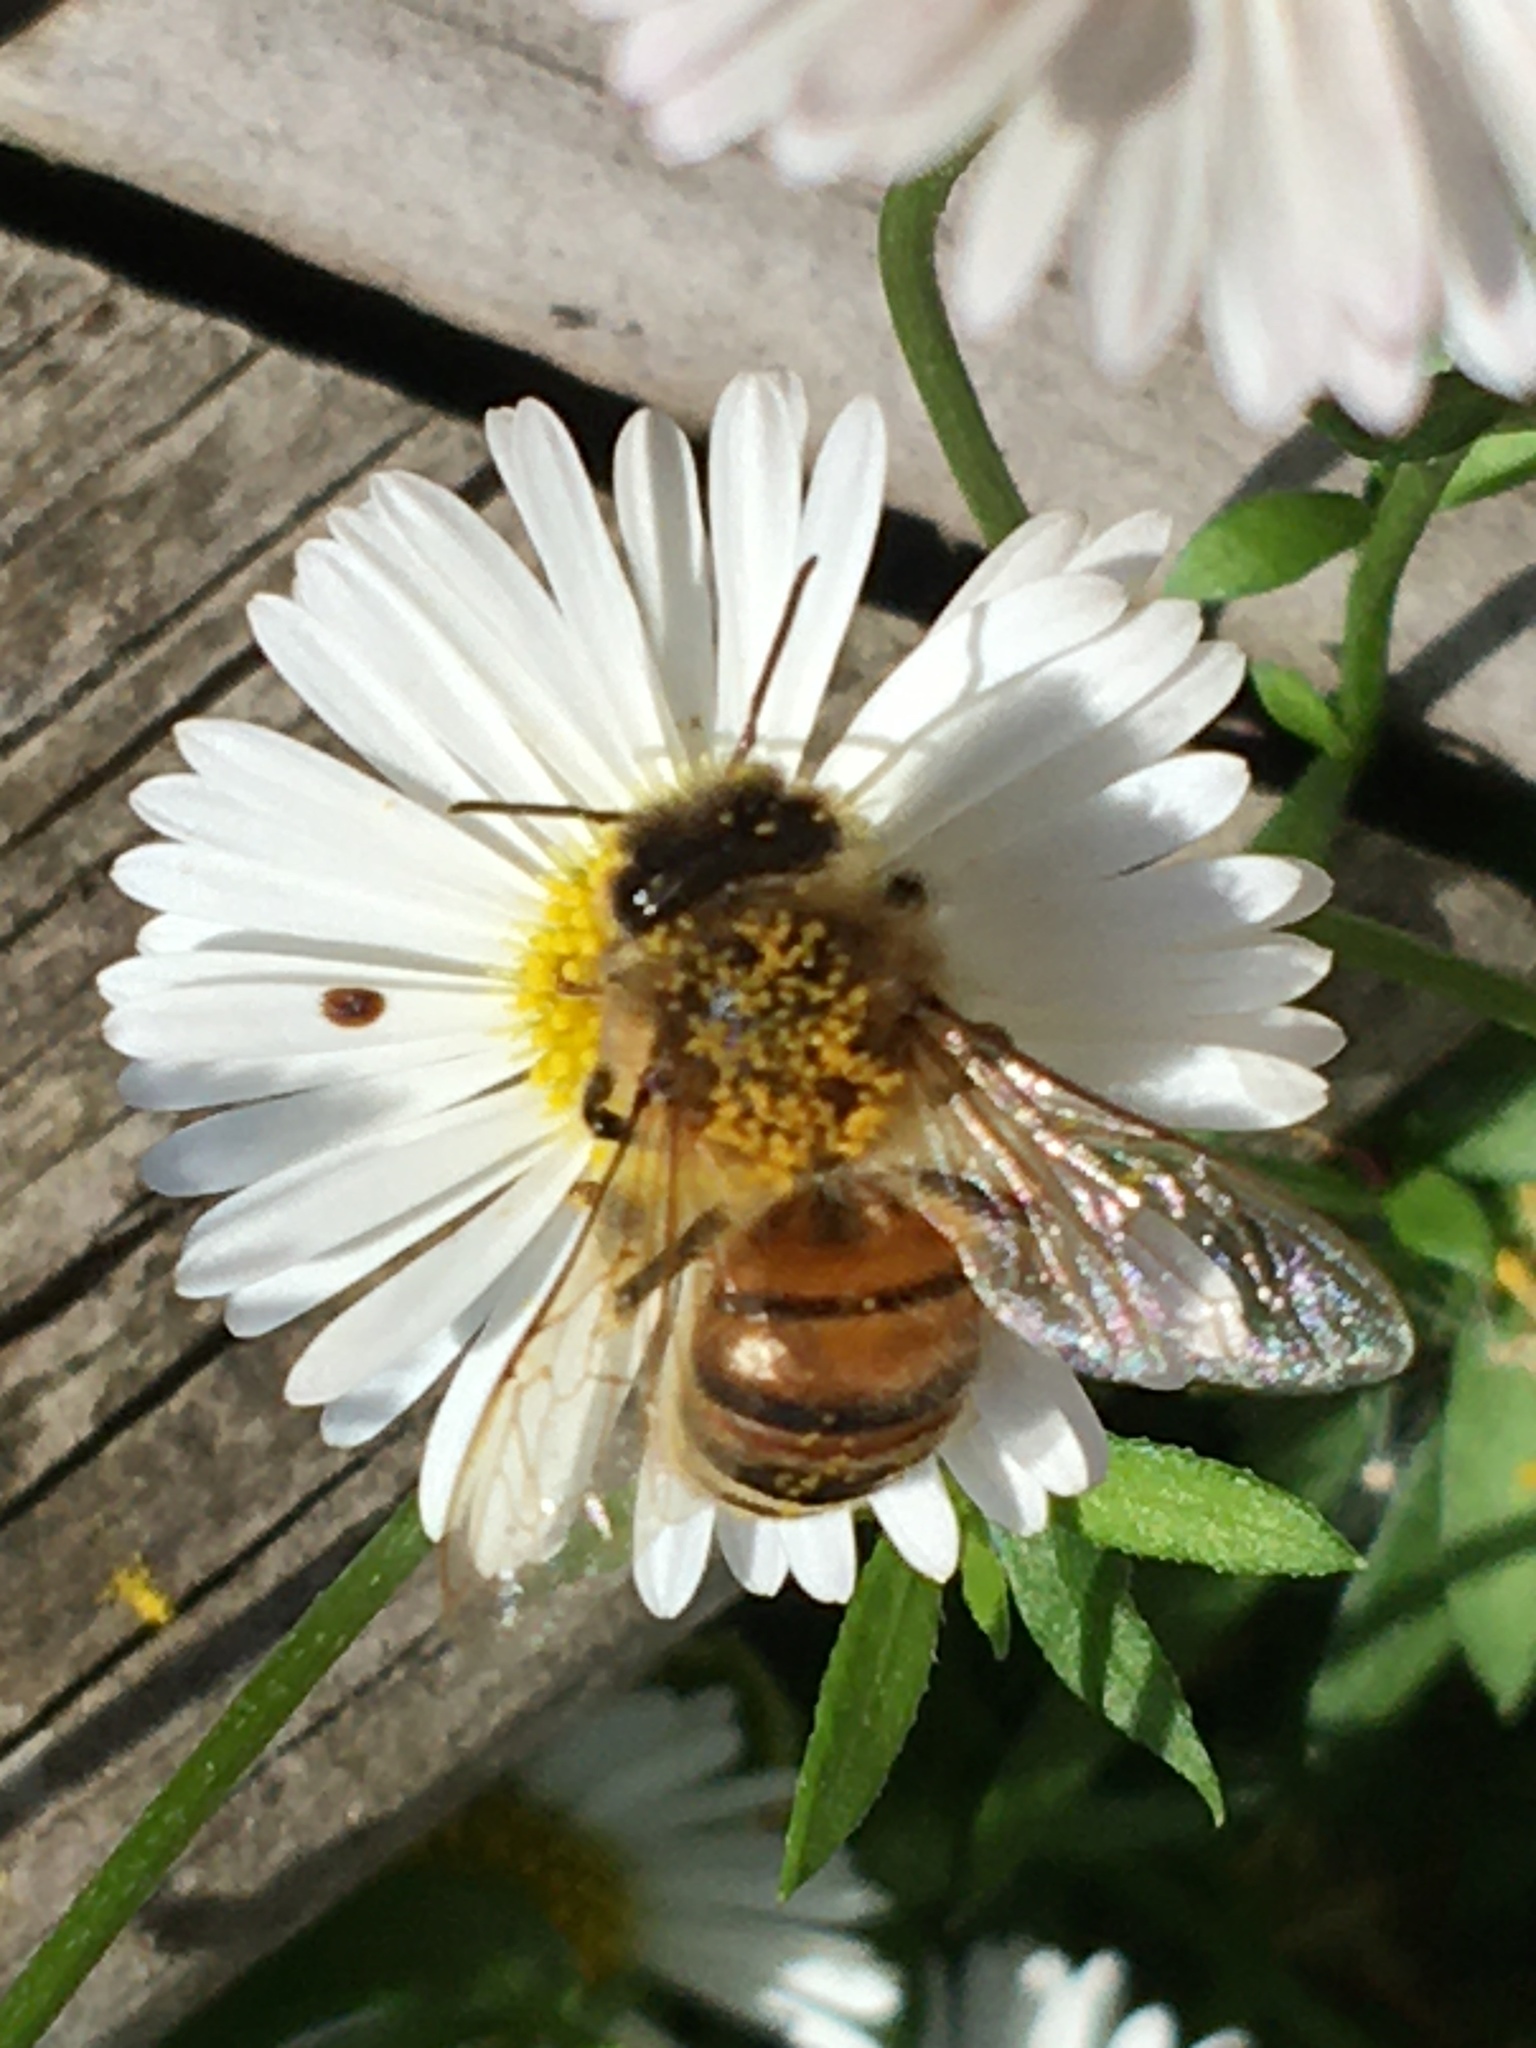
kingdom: Animalia
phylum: Arthropoda
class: Insecta
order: Hymenoptera
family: Apidae
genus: Apis
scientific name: Apis mellifera
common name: Honey bee
